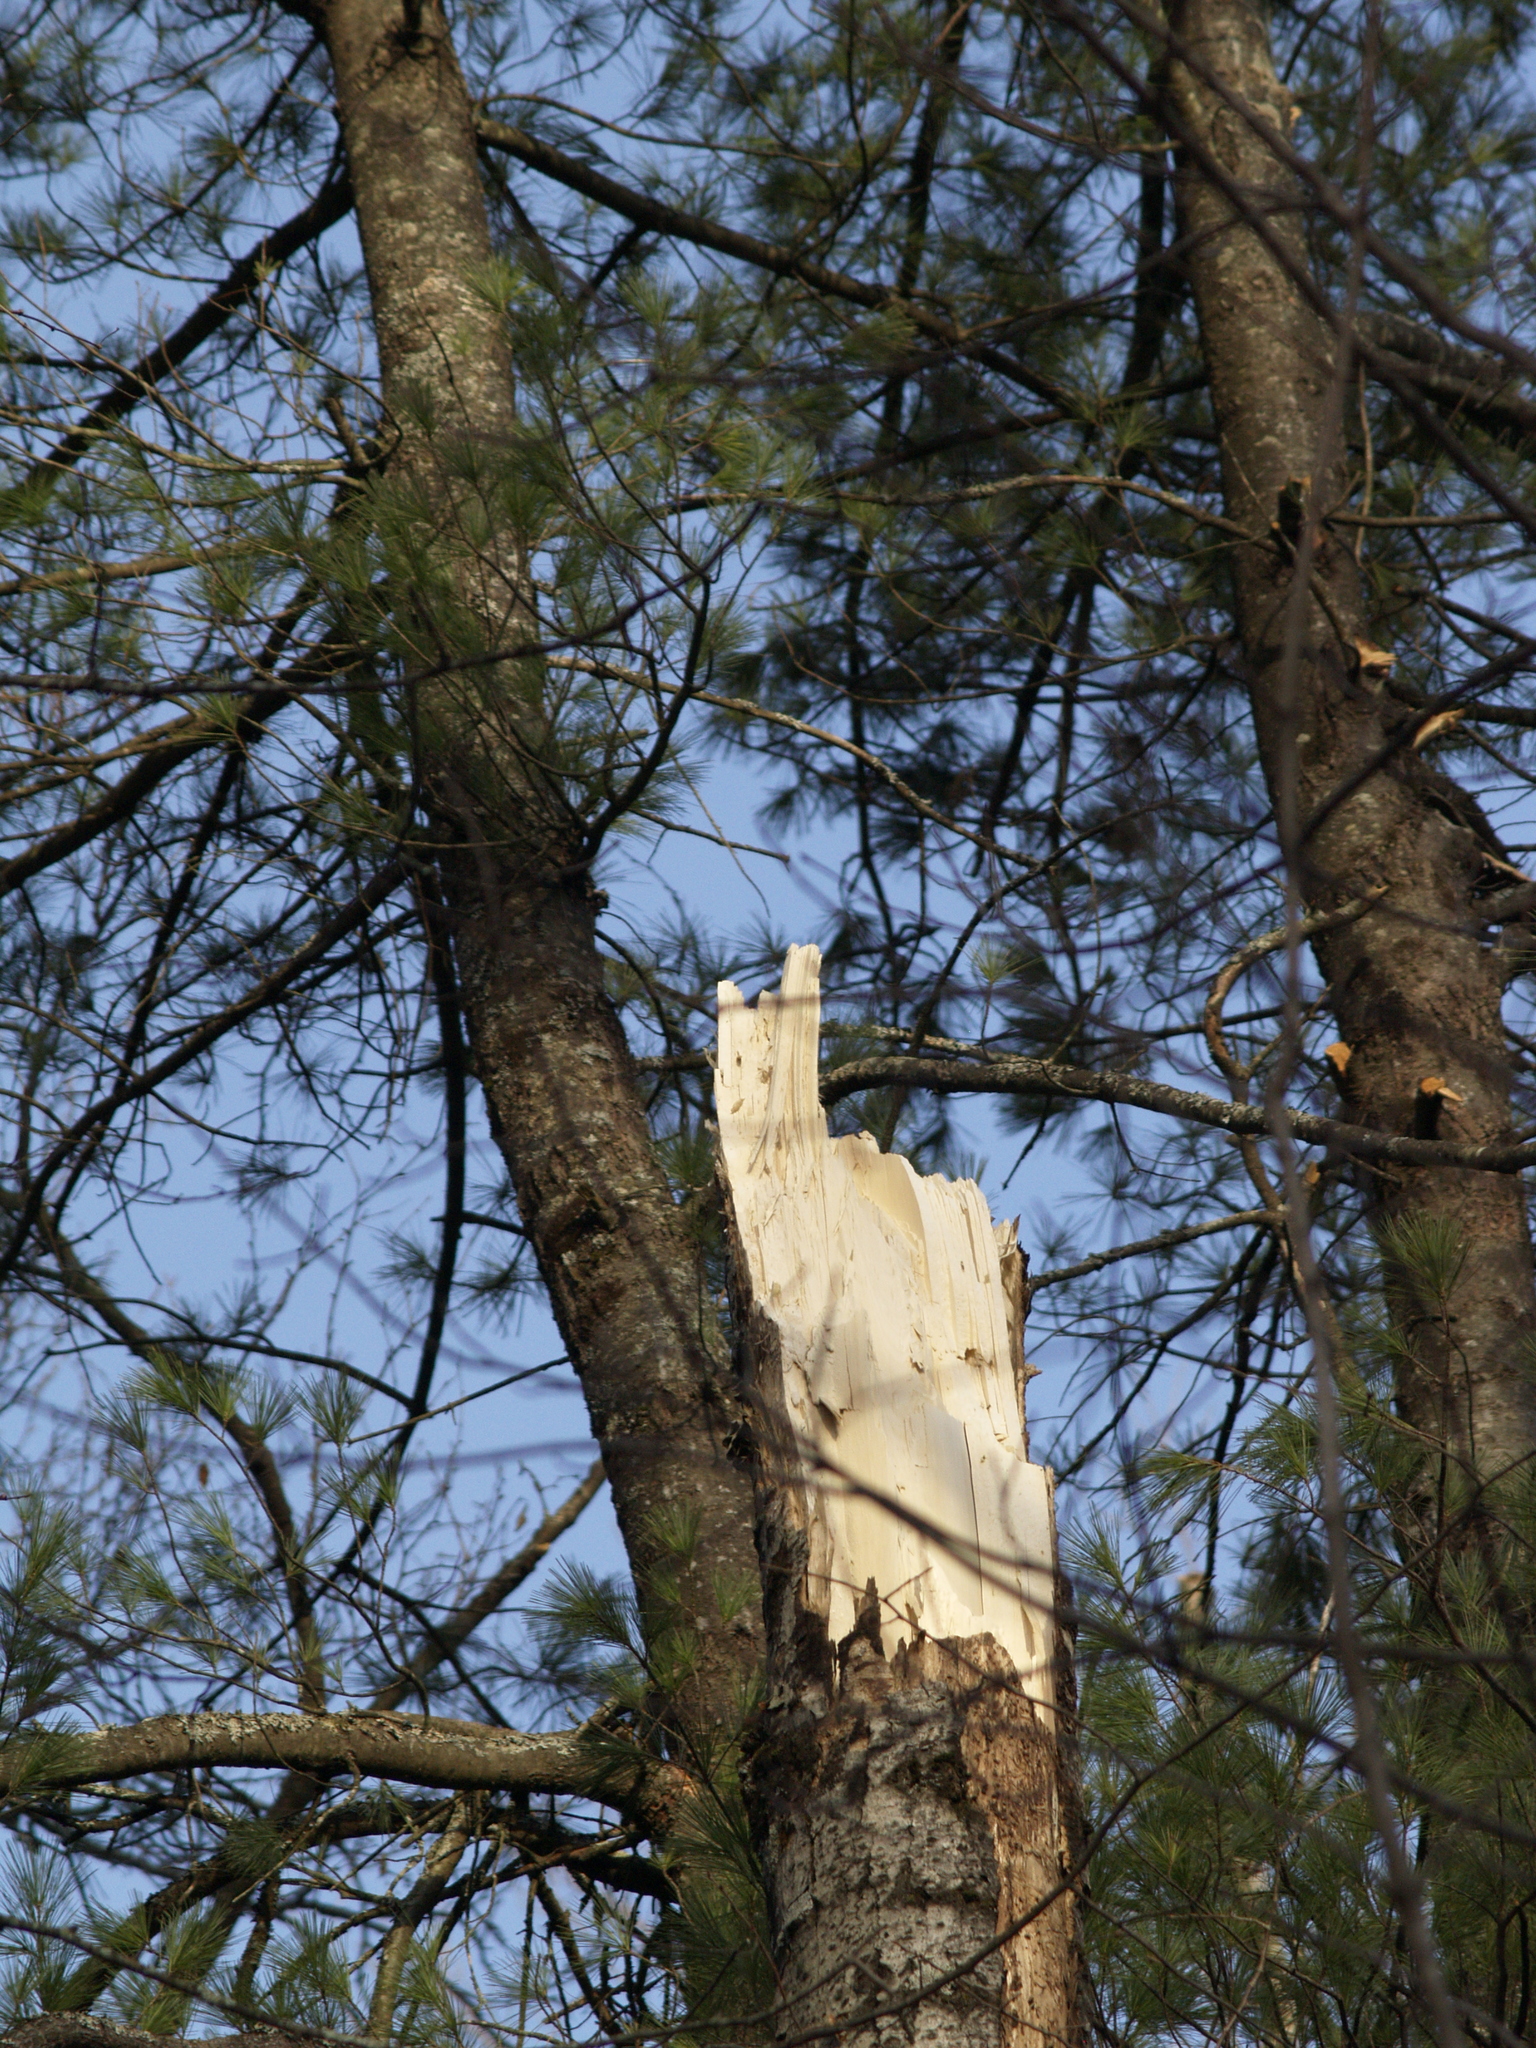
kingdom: Plantae
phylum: Tracheophyta
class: Pinopsida
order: Pinales
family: Pinaceae
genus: Pinus
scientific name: Pinus strobus
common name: Weymouth pine
